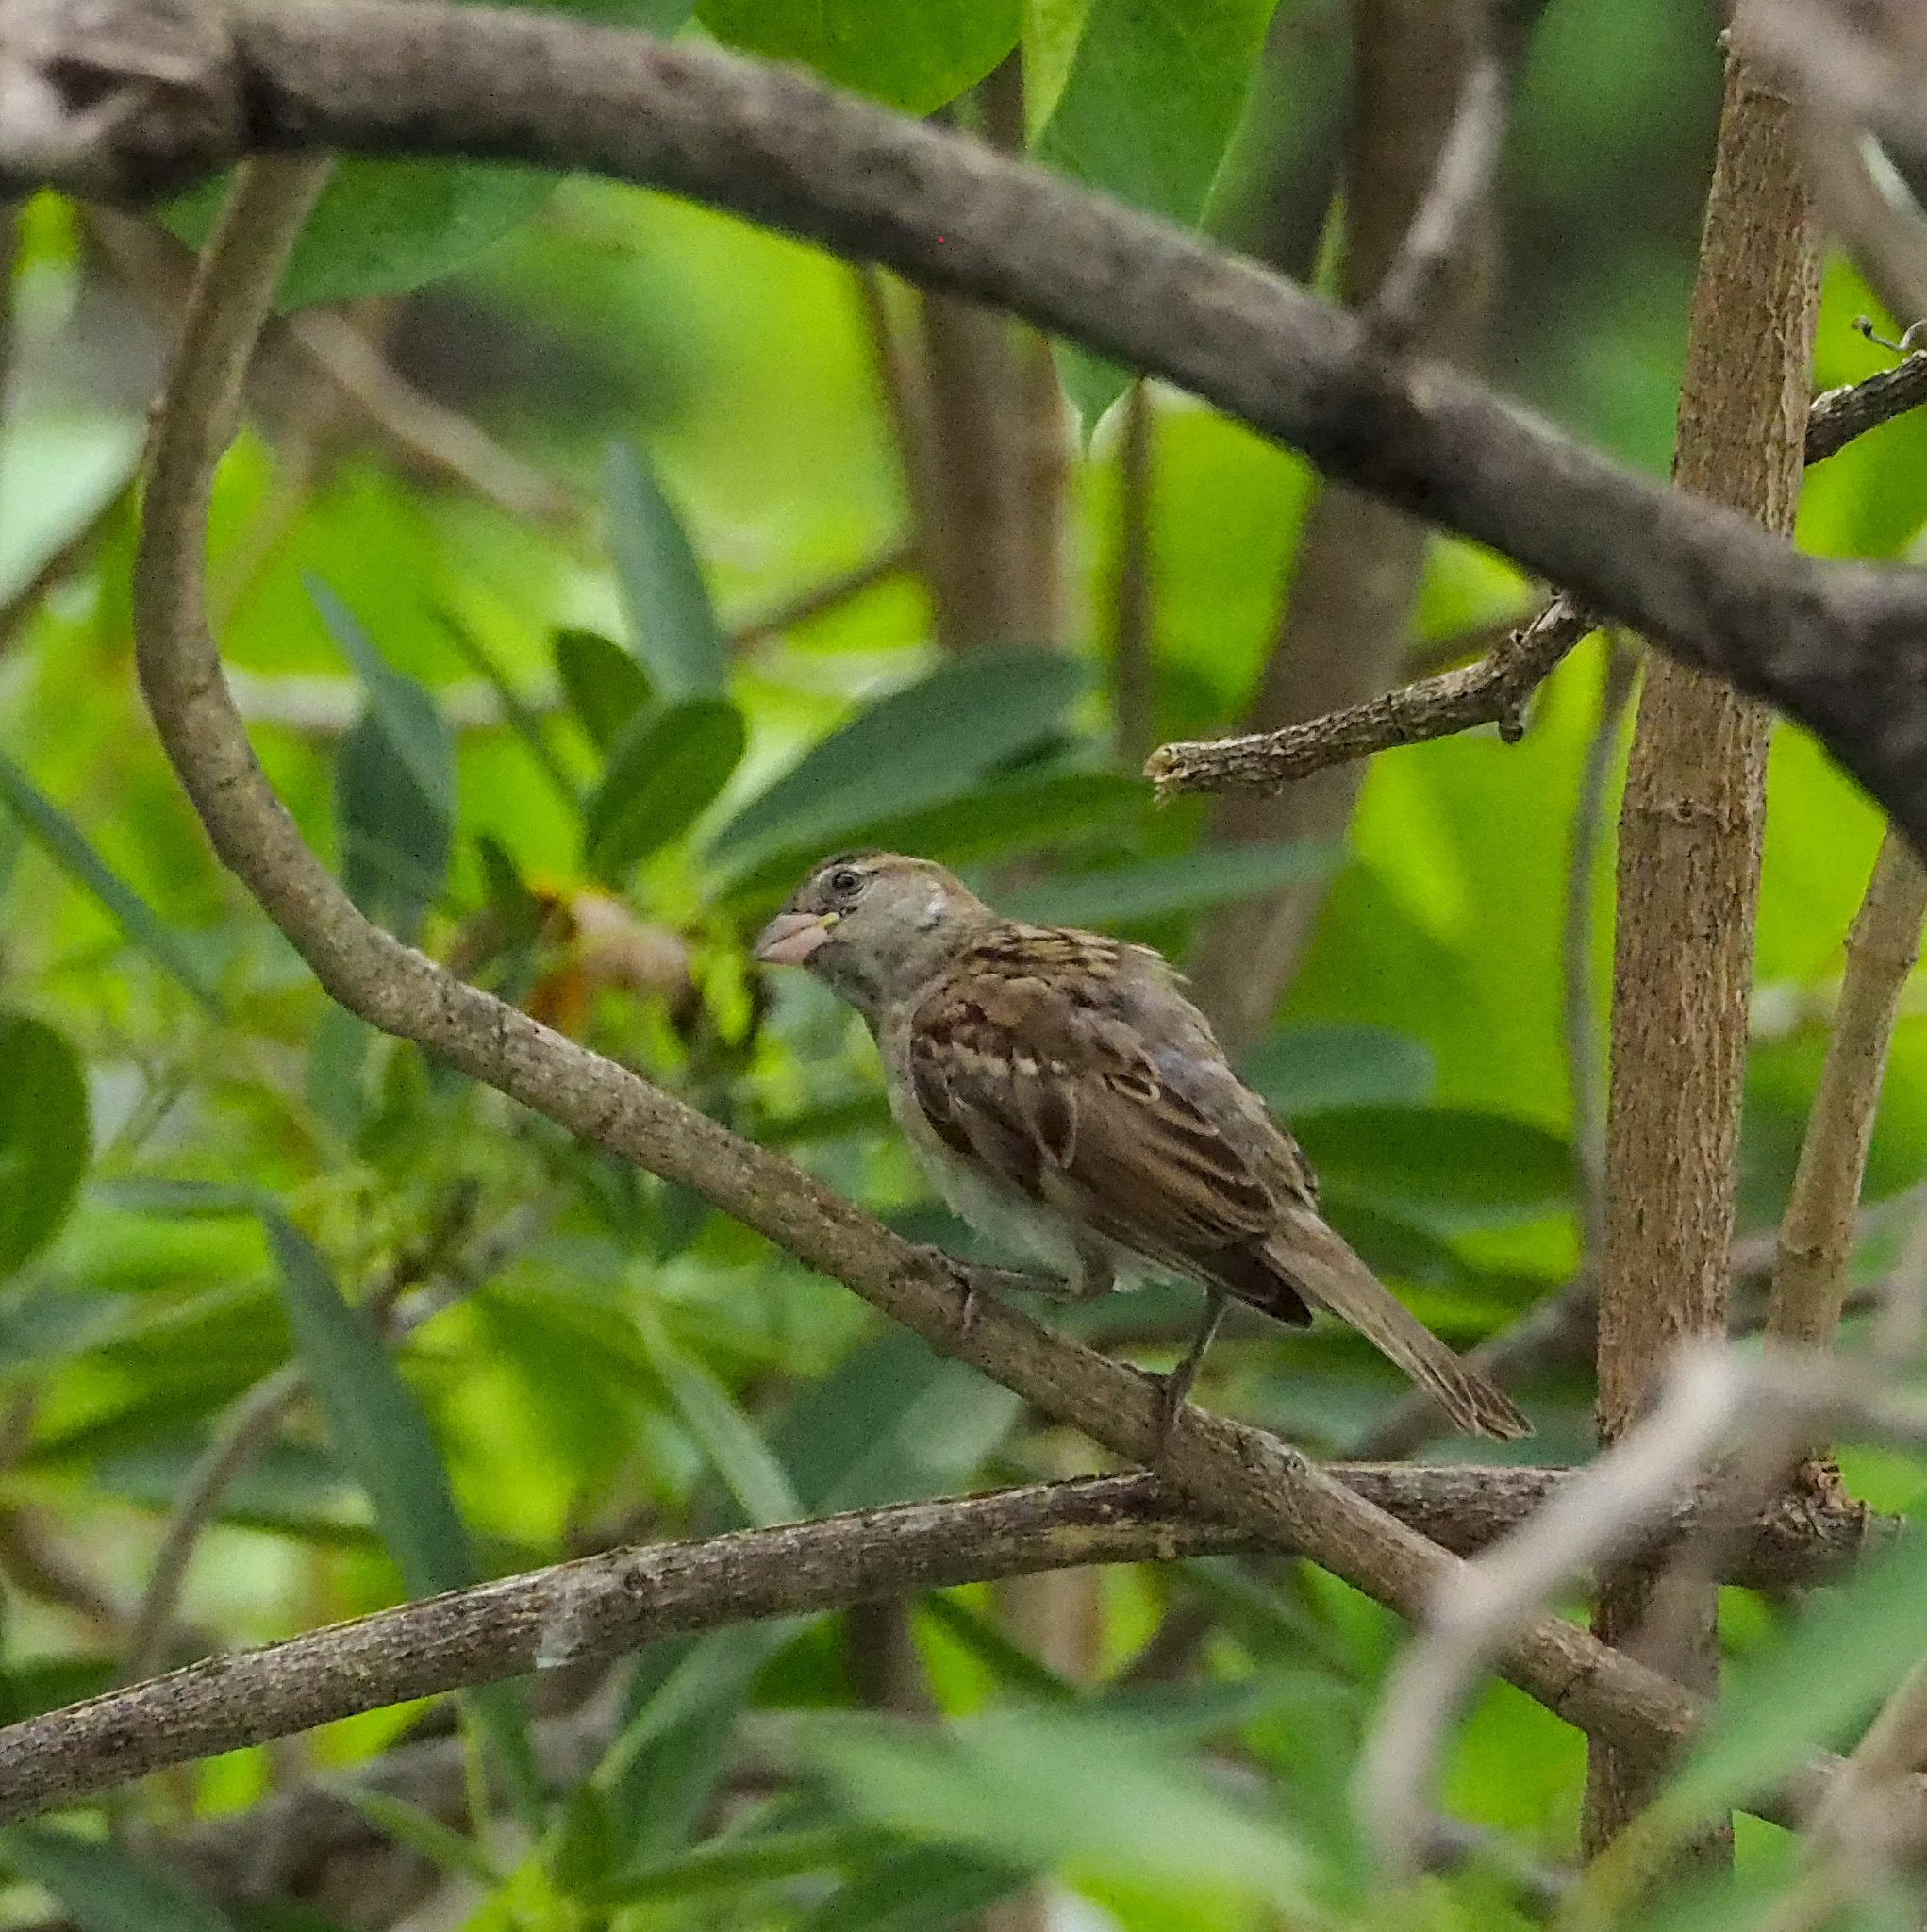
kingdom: Animalia
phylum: Chordata
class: Aves
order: Passeriformes
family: Passeridae
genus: Passer
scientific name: Passer domesticus
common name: House sparrow
